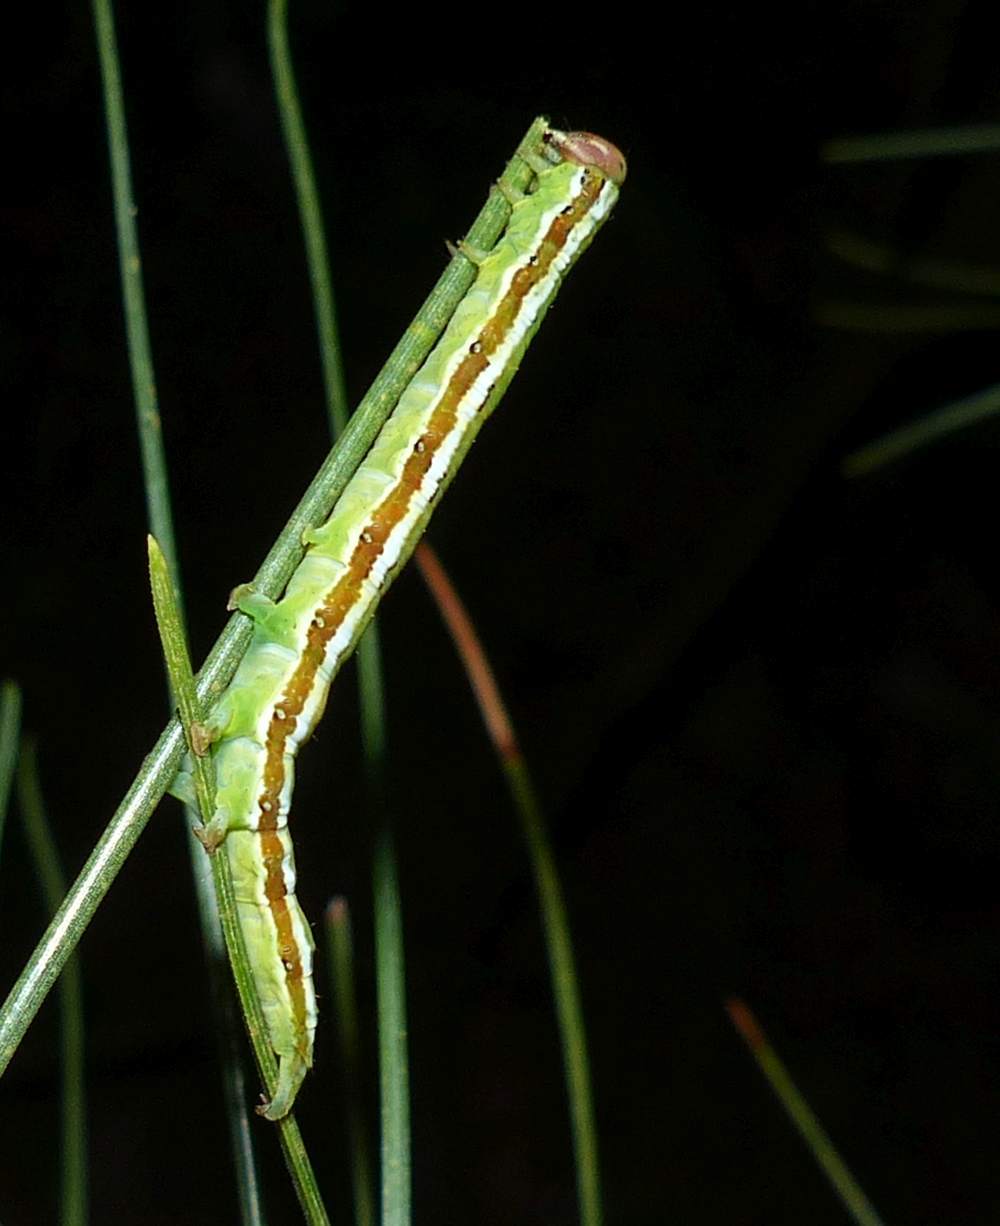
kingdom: Animalia
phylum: Arthropoda
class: Insecta
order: Lepidoptera
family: Erebidae
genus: Zale
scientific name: Zale helata
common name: Brown-spotted zale moth
